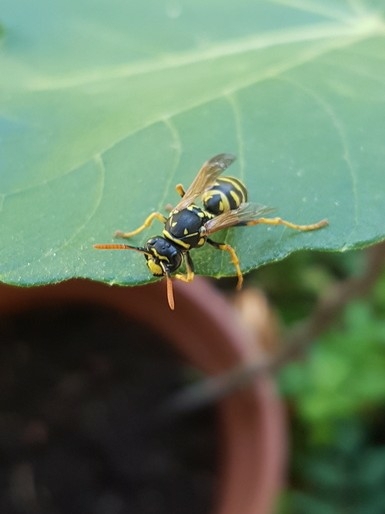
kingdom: Animalia
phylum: Arthropoda
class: Insecta
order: Hymenoptera
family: Eumenidae
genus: Polistes
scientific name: Polistes dominula
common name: Paper wasp
